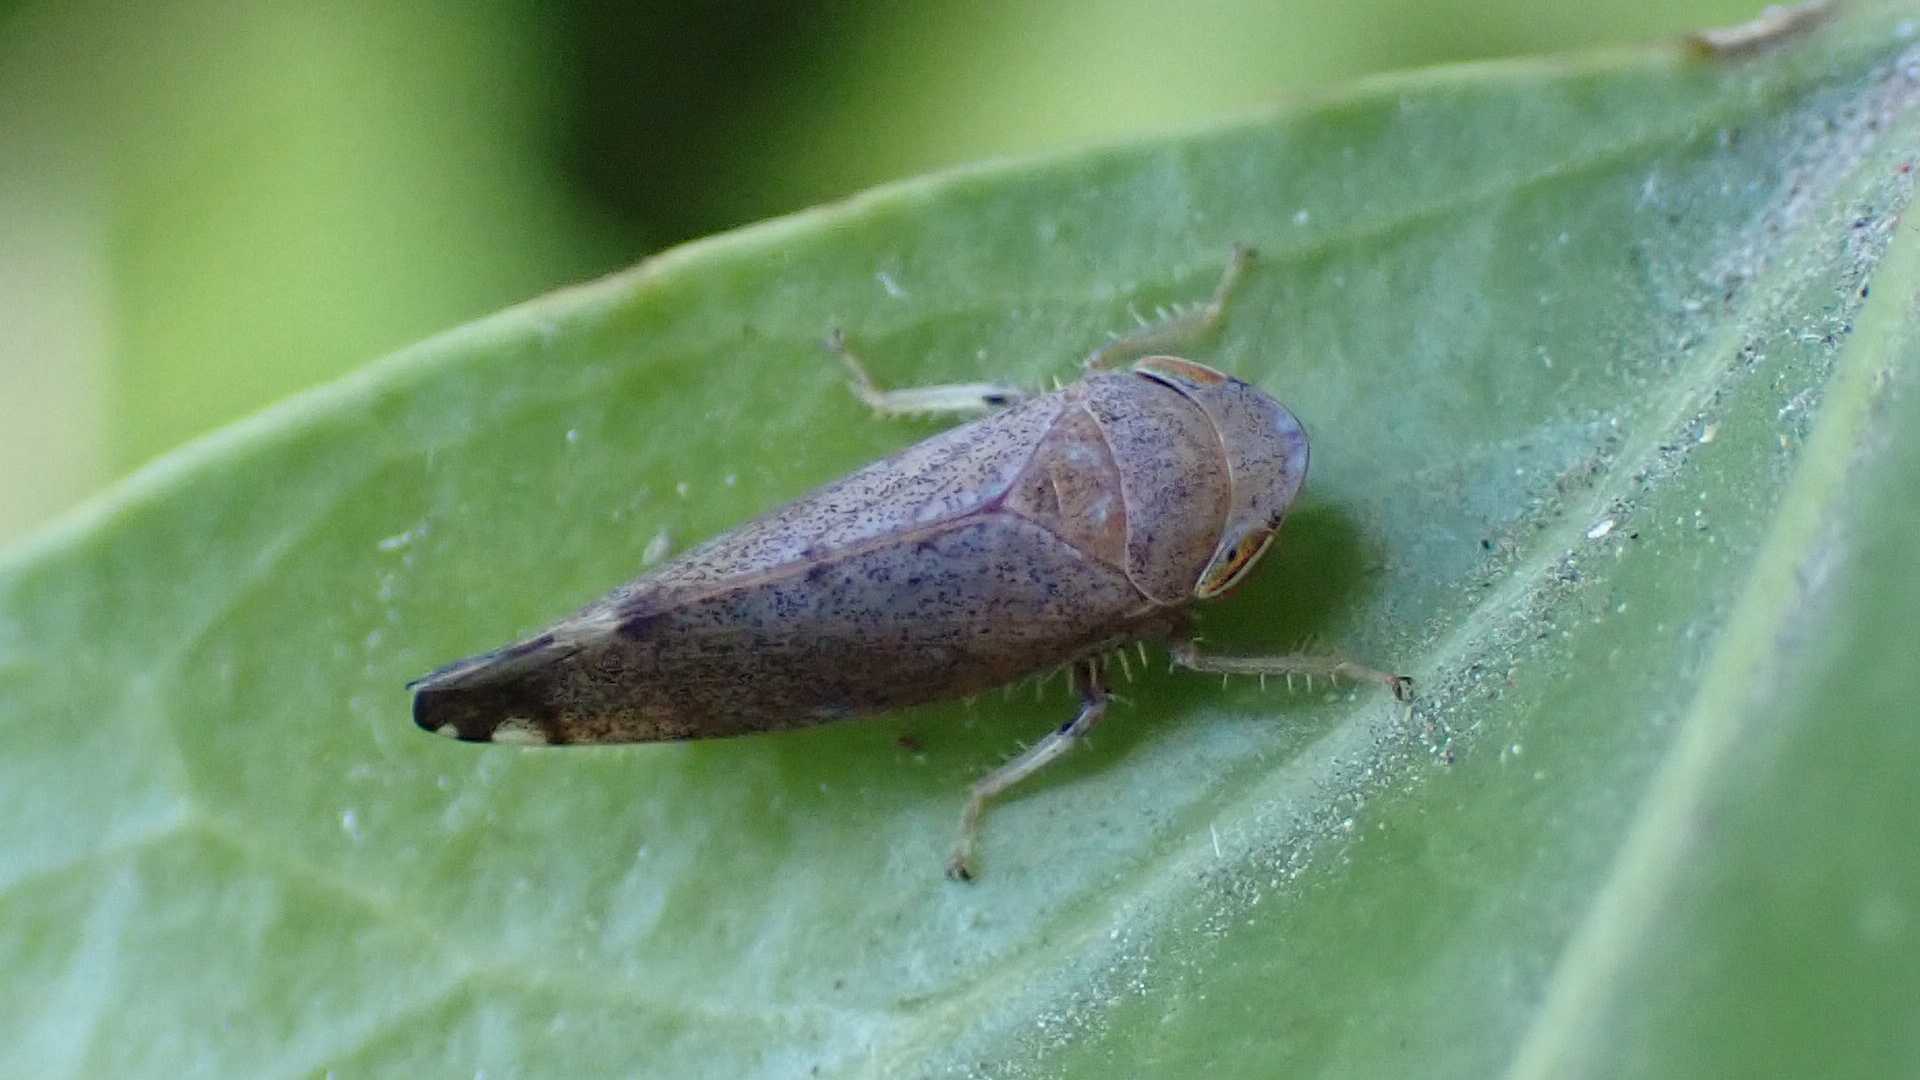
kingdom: Animalia
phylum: Arthropoda
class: Insecta
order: Hemiptera
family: Cicadellidae
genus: Fieberiella
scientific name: Fieberiella
